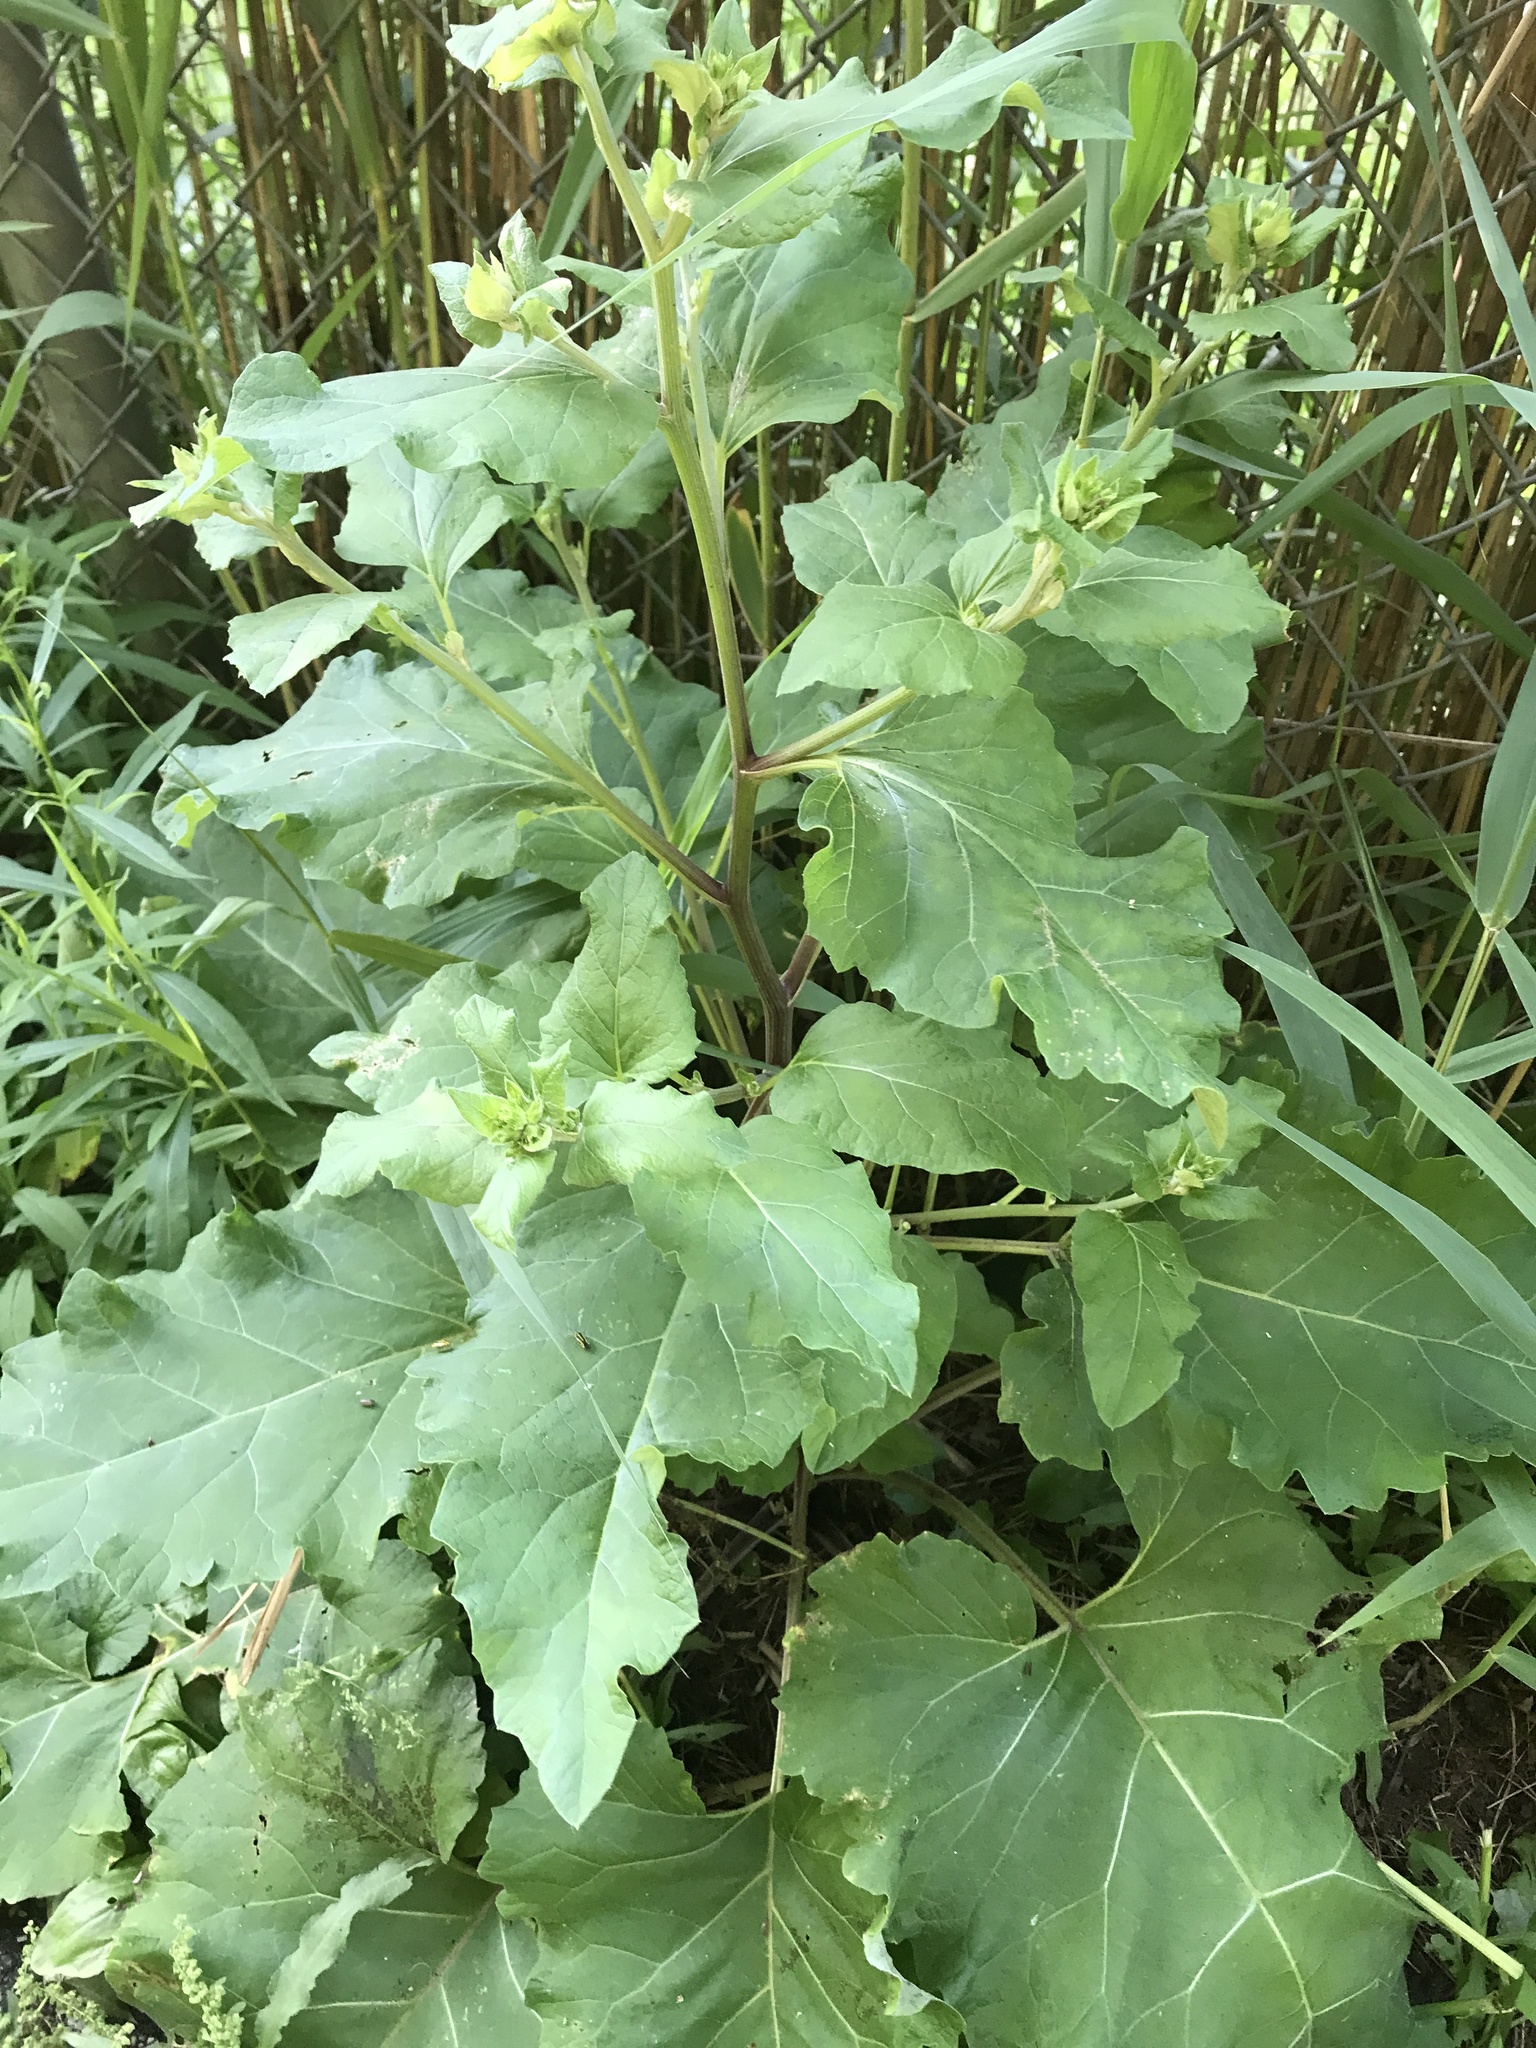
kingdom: Plantae
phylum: Tracheophyta
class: Magnoliopsida
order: Asterales
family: Asteraceae
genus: Arctium
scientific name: Arctium
